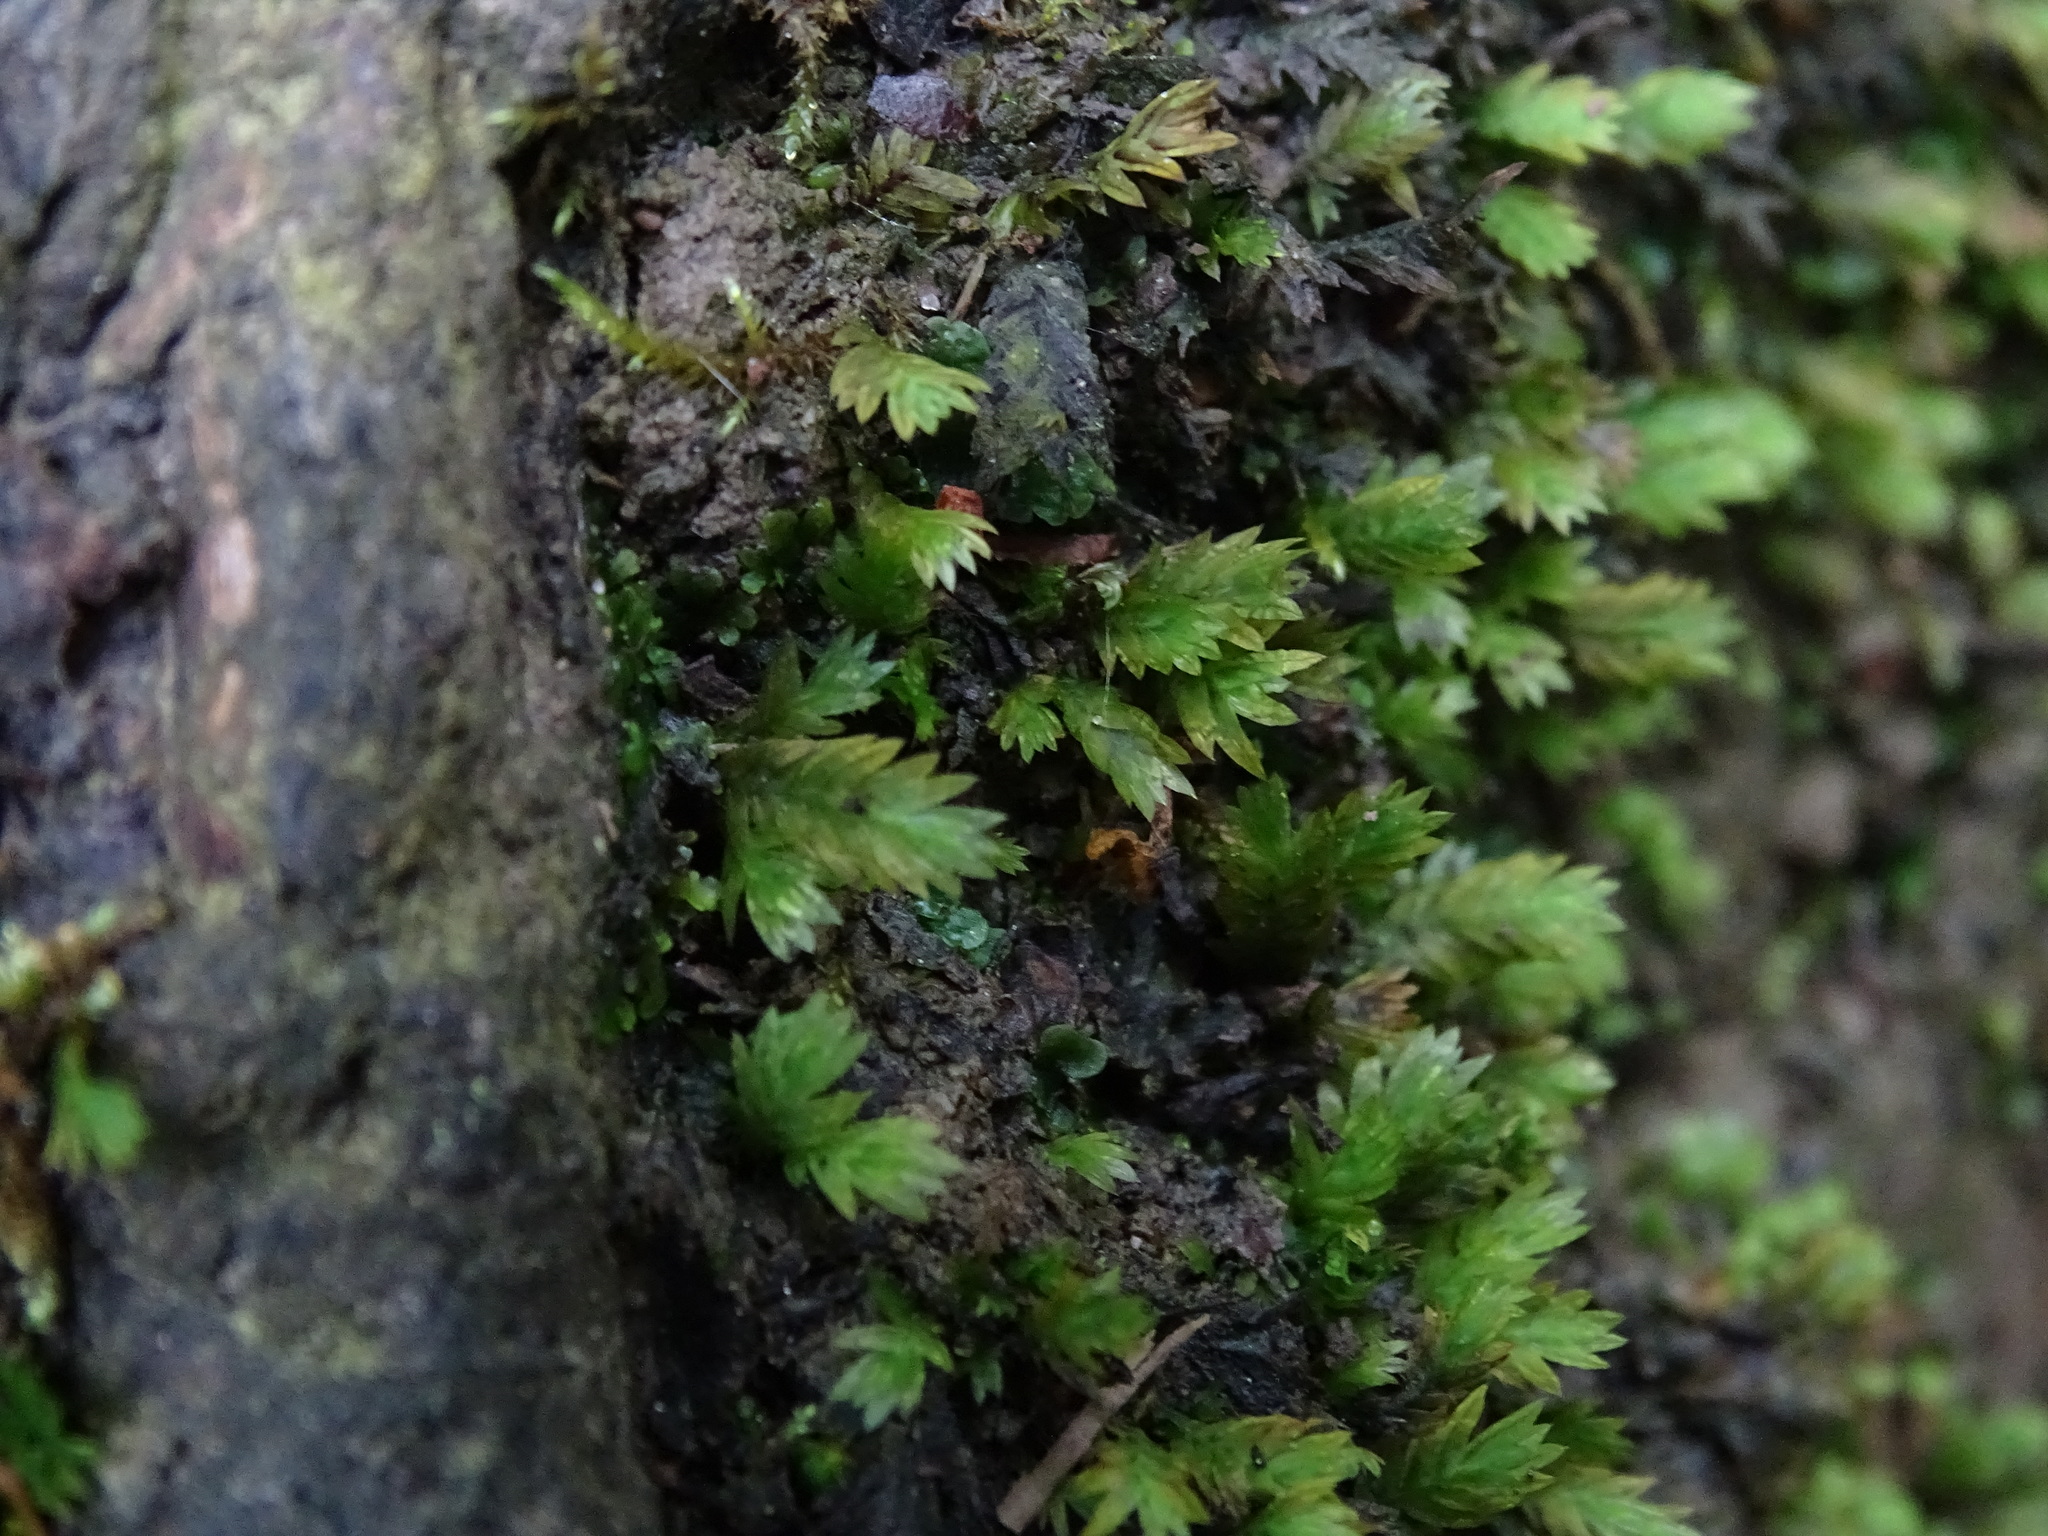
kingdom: Plantae
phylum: Bryophyta
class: Bryopsida
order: Dicranales
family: Fissidentaceae
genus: Fissidens
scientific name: Fissidens taxifolius
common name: Yew-leaved pocket moss
